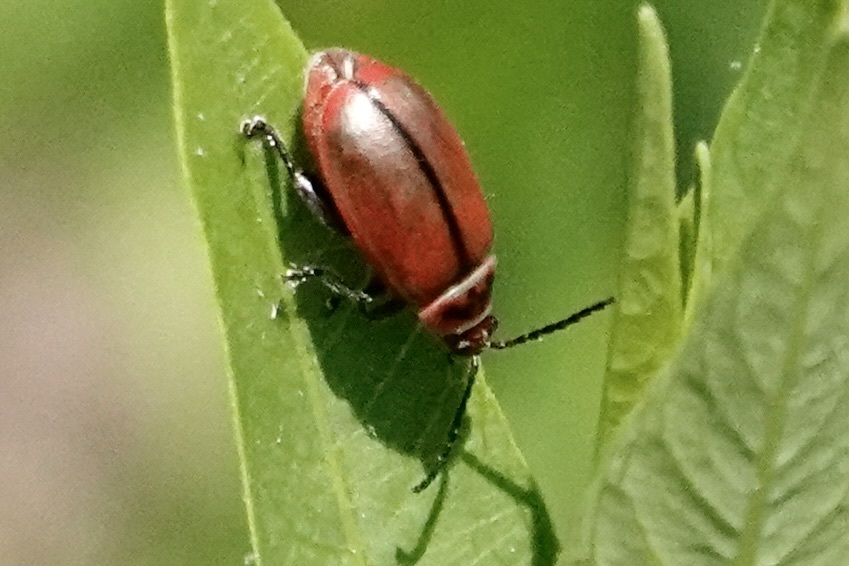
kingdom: Animalia
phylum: Arthropoda
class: Insecta
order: Coleoptera
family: Chrysomelidae
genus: Kuschelina
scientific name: Kuschelina fimbriata
